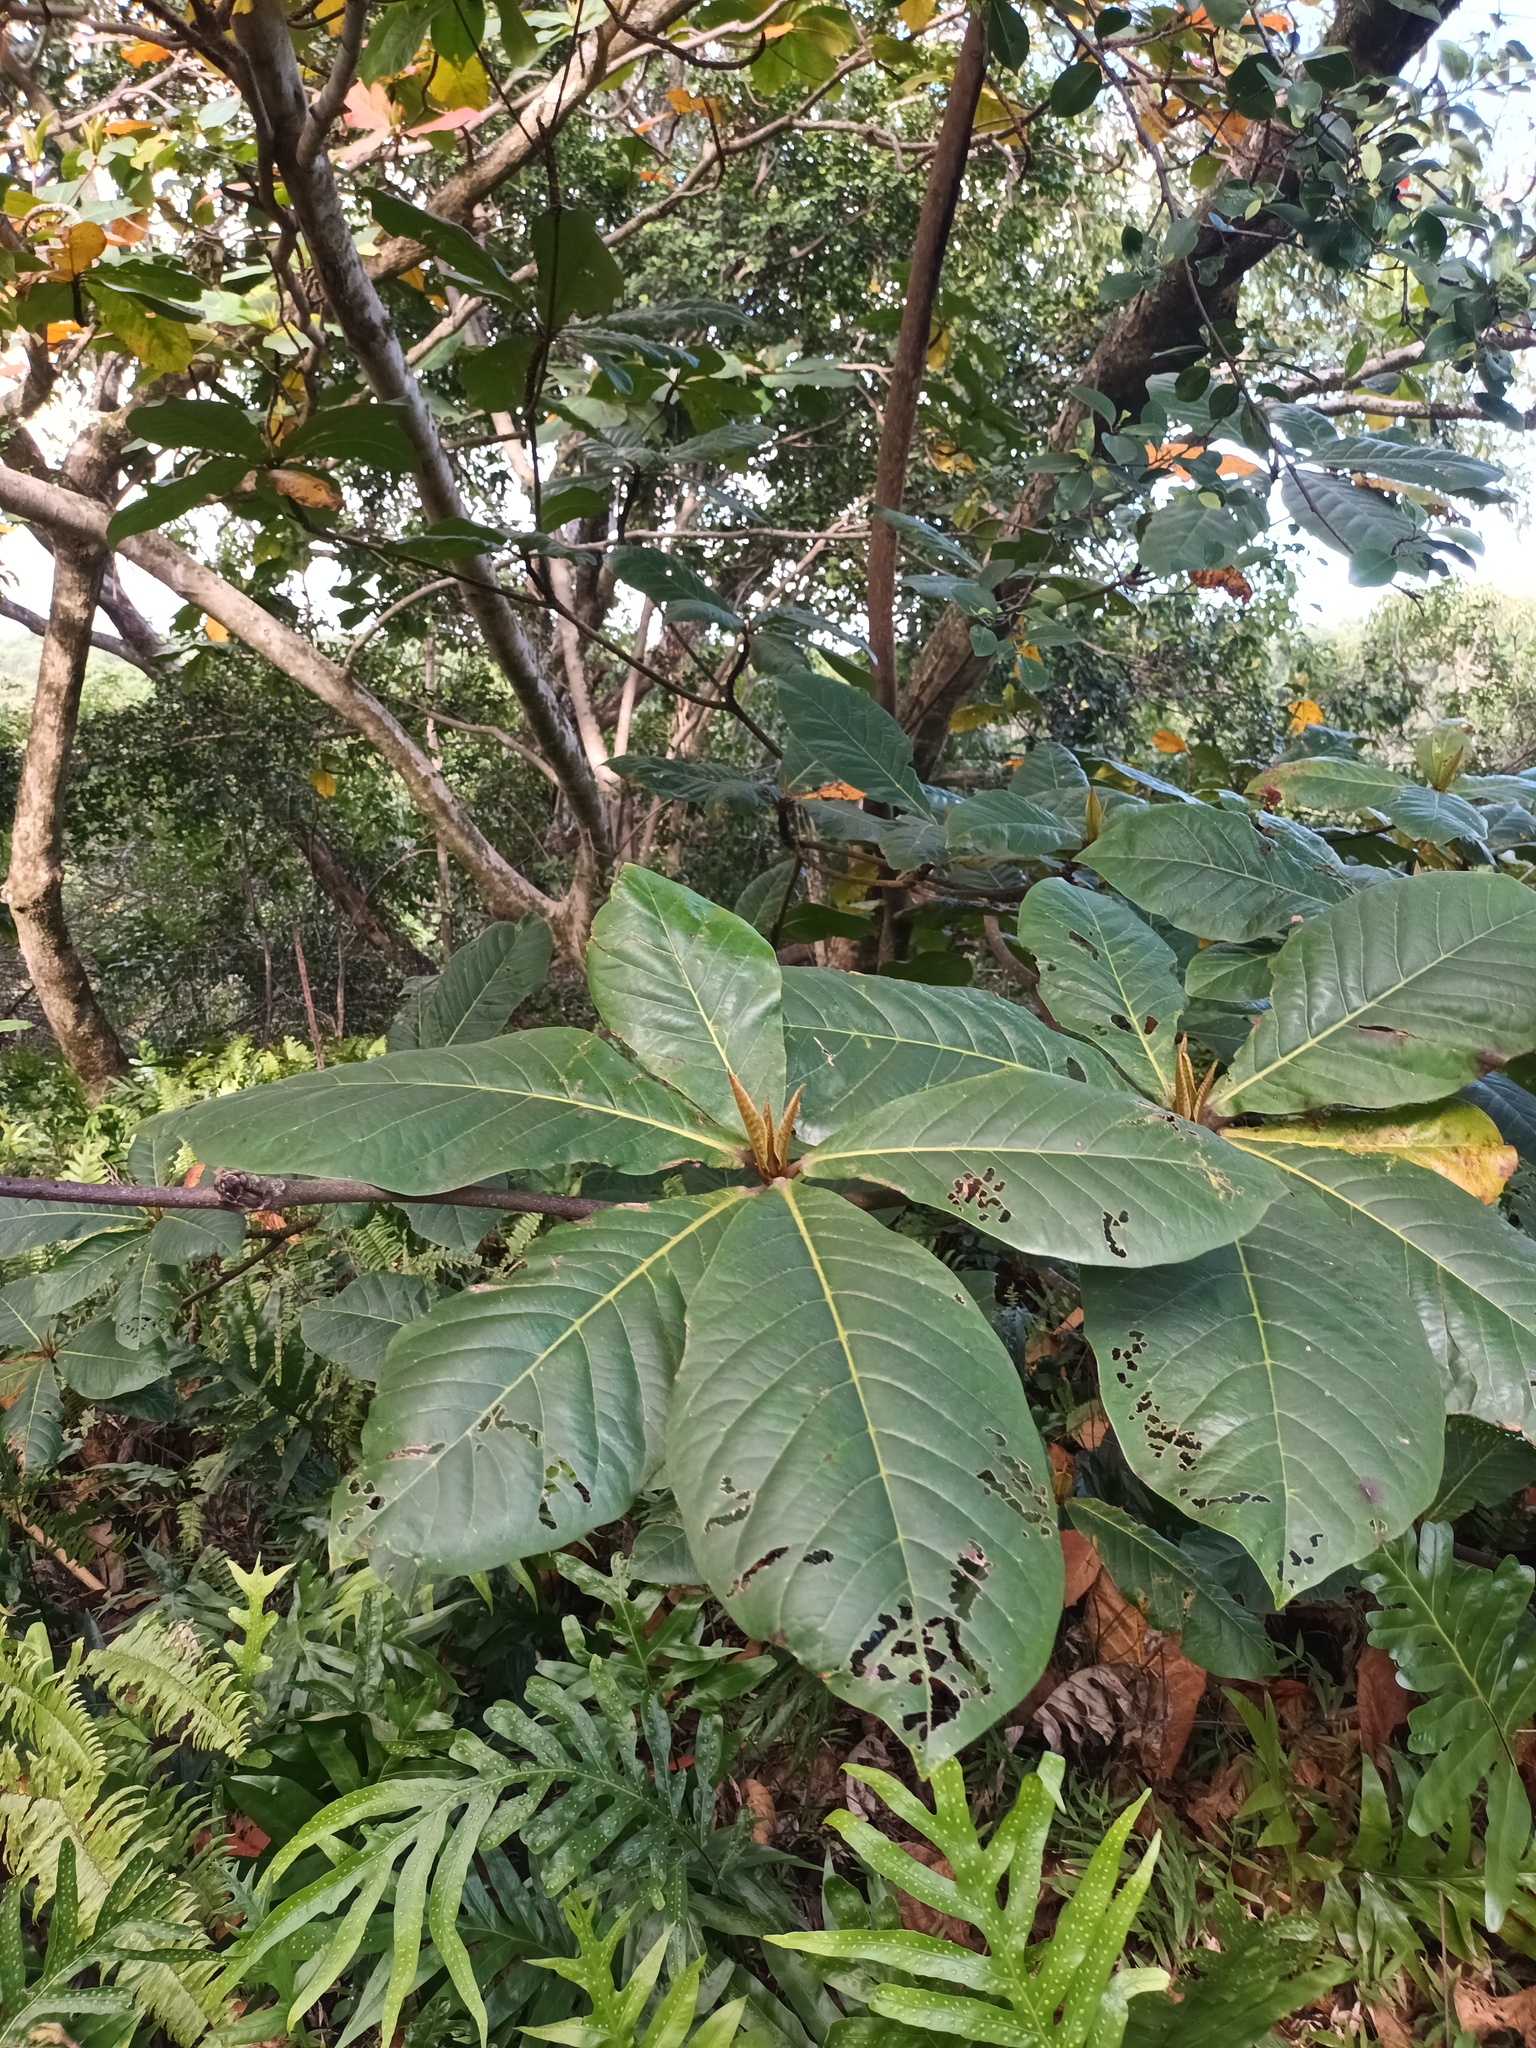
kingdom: Plantae
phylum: Tracheophyta
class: Magnoliopsida
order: Myrtales
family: Combretaceae
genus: Terminalia
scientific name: Terminalia catappa
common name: Tropical almond
